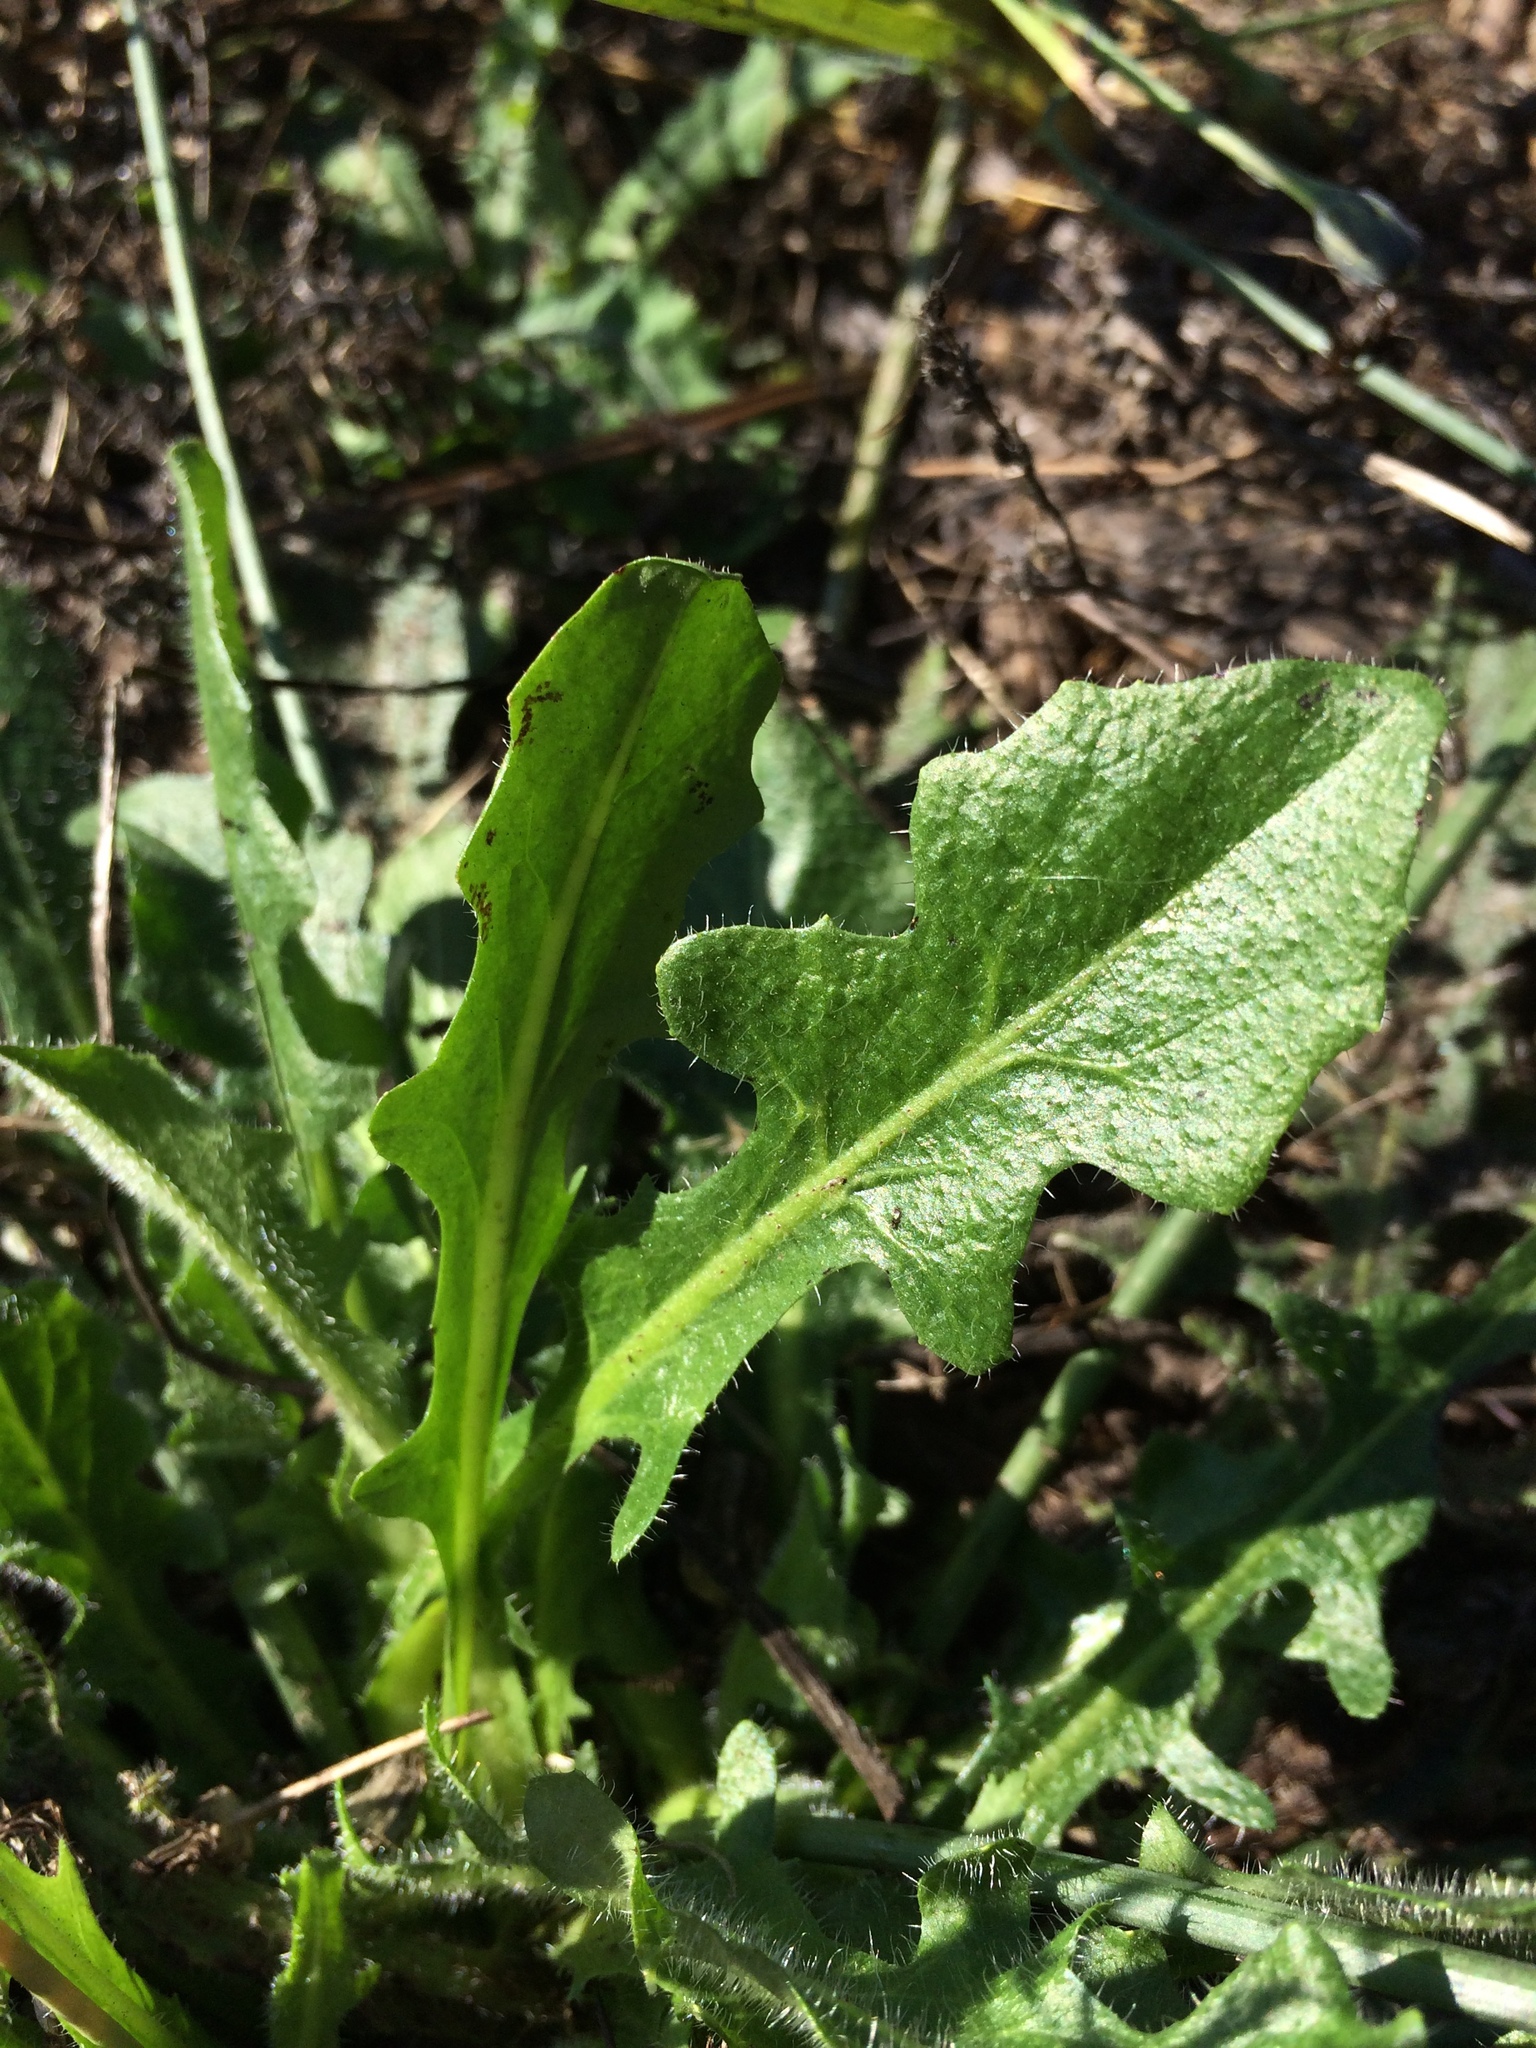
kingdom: Plantae
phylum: Tracheophyta
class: Magnoliopsida
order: Asterales
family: Asteraceae
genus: Hypochaeris
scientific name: Hypochaeris radicata
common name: Flatweed
